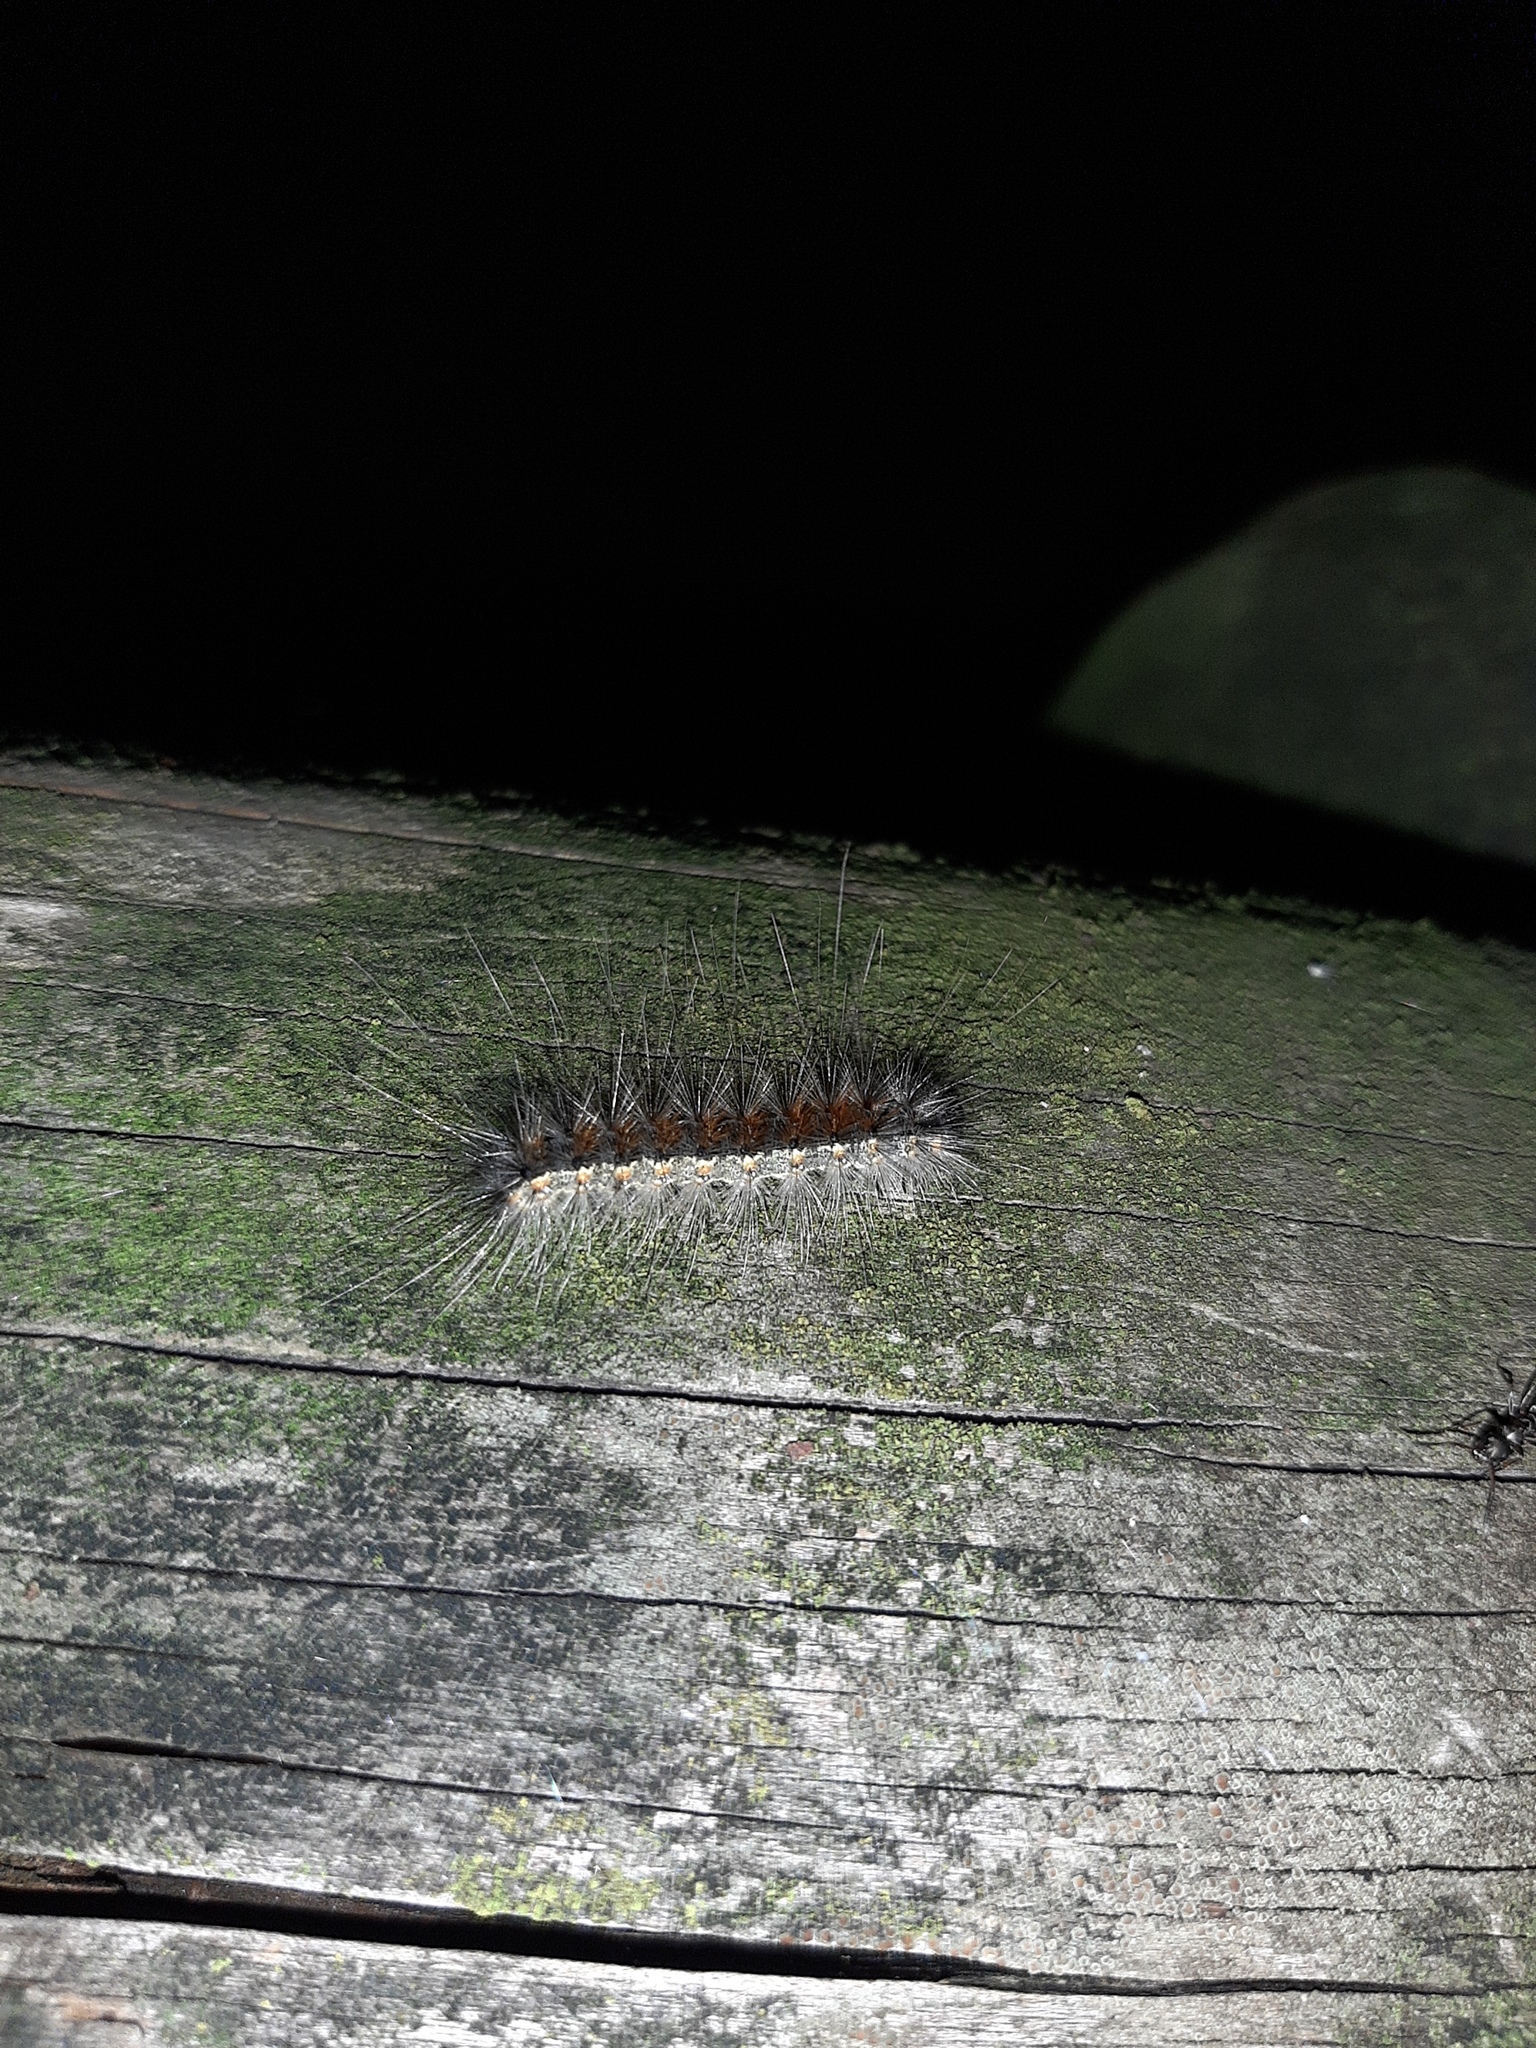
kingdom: Animalia
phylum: Arthropoda
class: Insecta
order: Lepidoptera
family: Erebidae
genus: Hyphantria
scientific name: Hyphantria cunea
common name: American white moth
